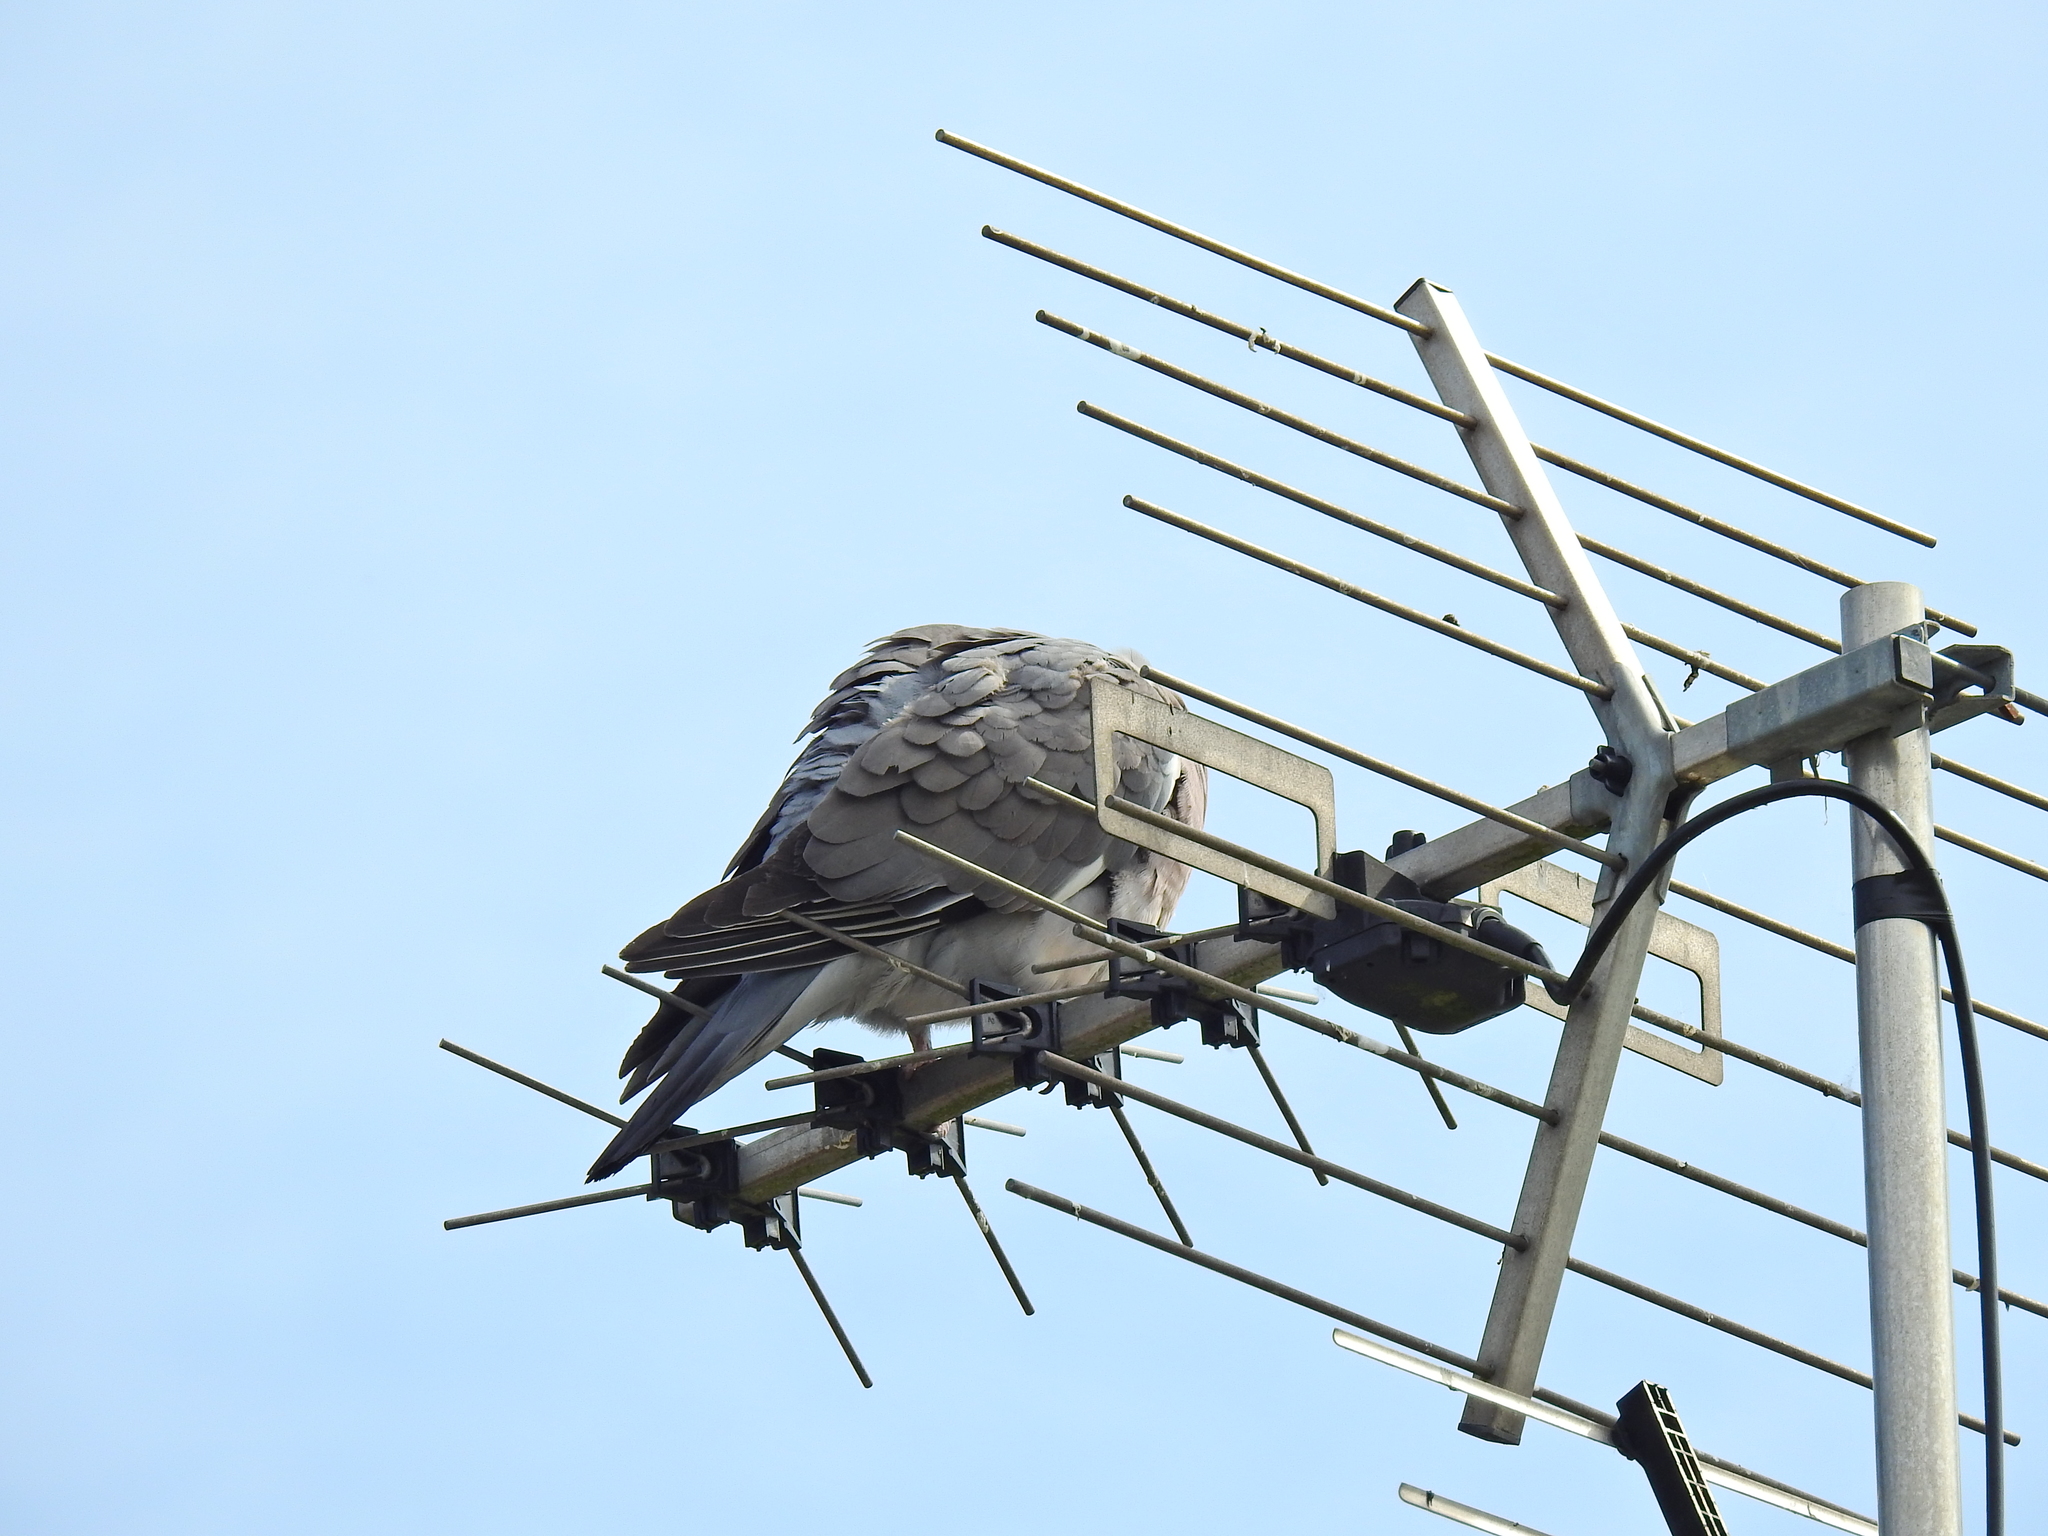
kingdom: Animalia
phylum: Chordata
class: Aves
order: Columbiformes
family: Columbidae
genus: Columba
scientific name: Columba palumbus
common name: Common wood pigeon
